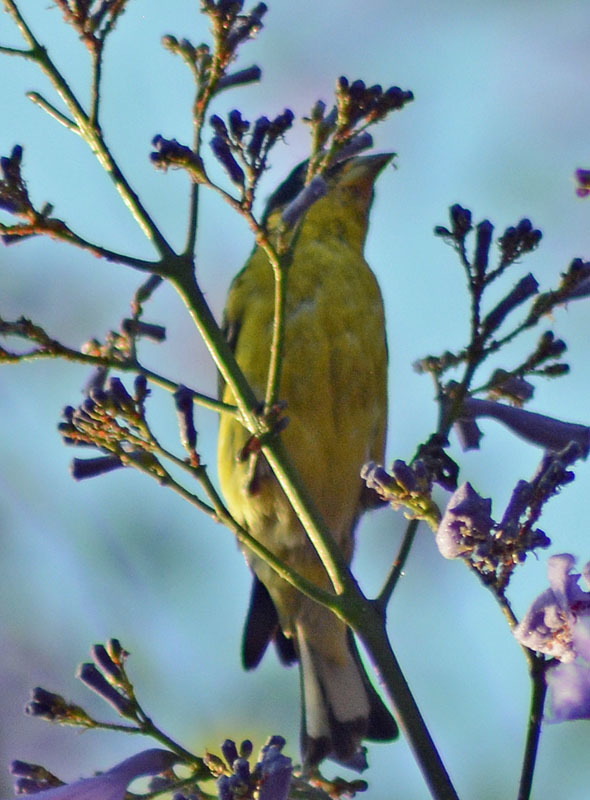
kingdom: Animalia
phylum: Chordata
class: Aves
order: Passeriformes
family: Fringillidae
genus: Spinus
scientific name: Spinus psaltria
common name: Lesser goldfinch
